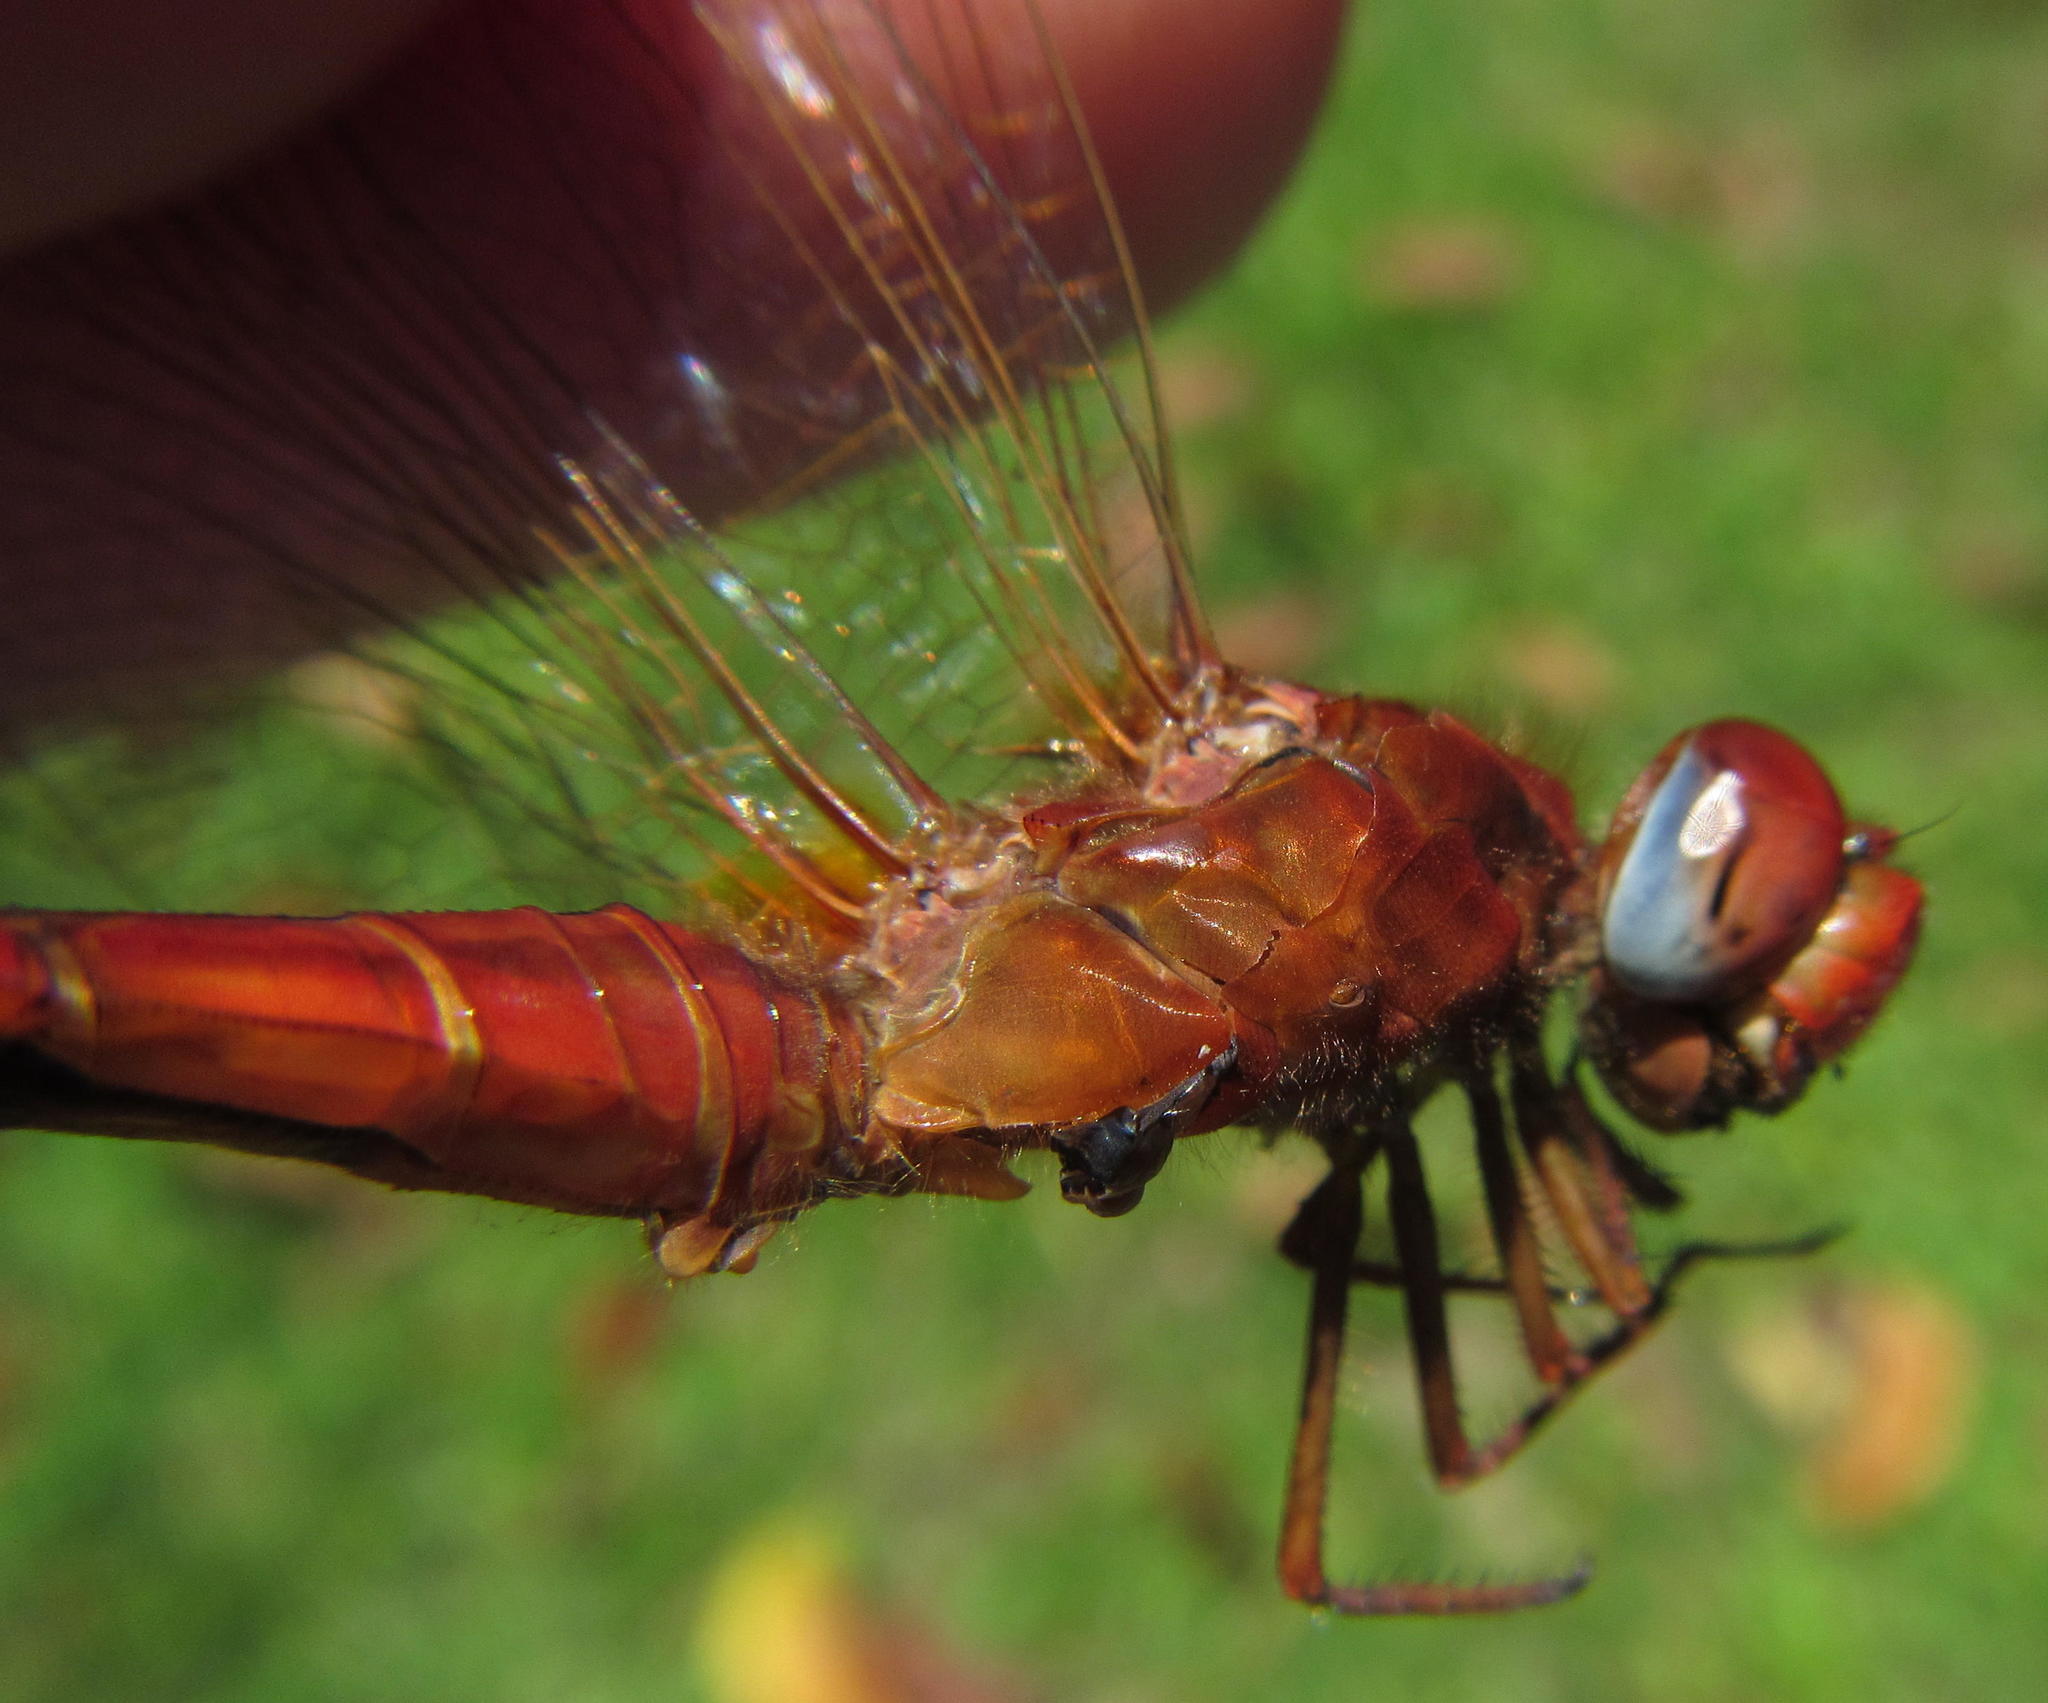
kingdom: Animalia
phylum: Arthropoda
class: Insecta
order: Odonata
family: Libellulidae
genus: Crocothemis
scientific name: Crocothemis erythraea
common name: Scarlet dragonfly
